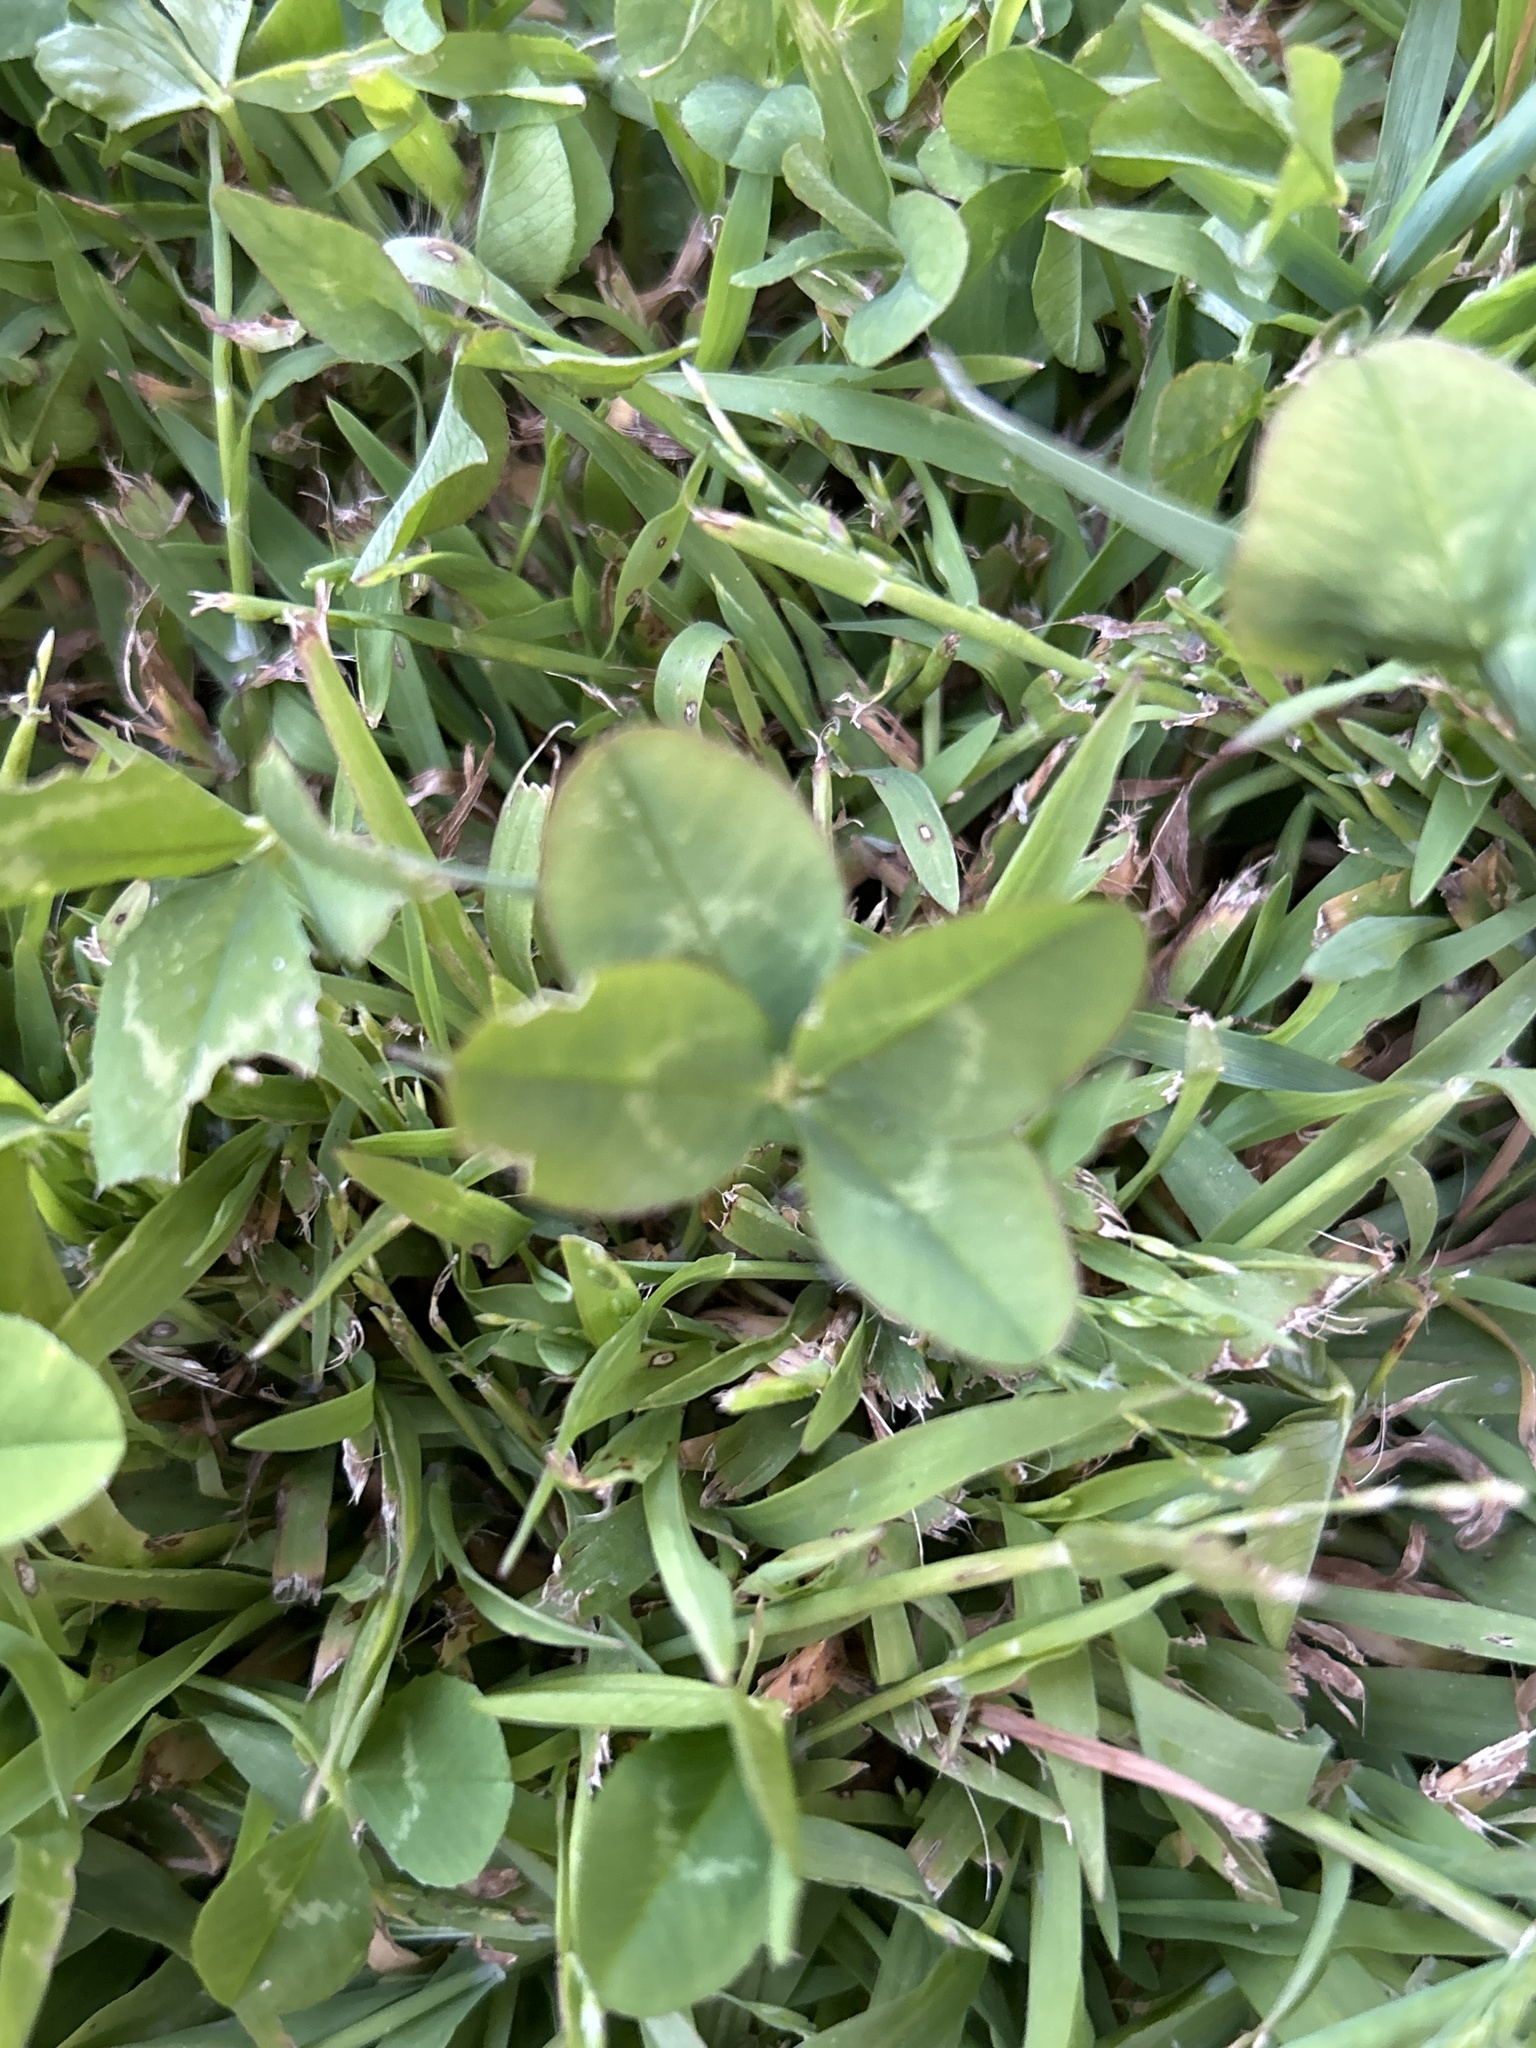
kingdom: Plantae
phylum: Tracheophyta
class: Magnoliopsida
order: Fabales
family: Fabaceae
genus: Trifolium
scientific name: Trifolium repens
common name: White clover
